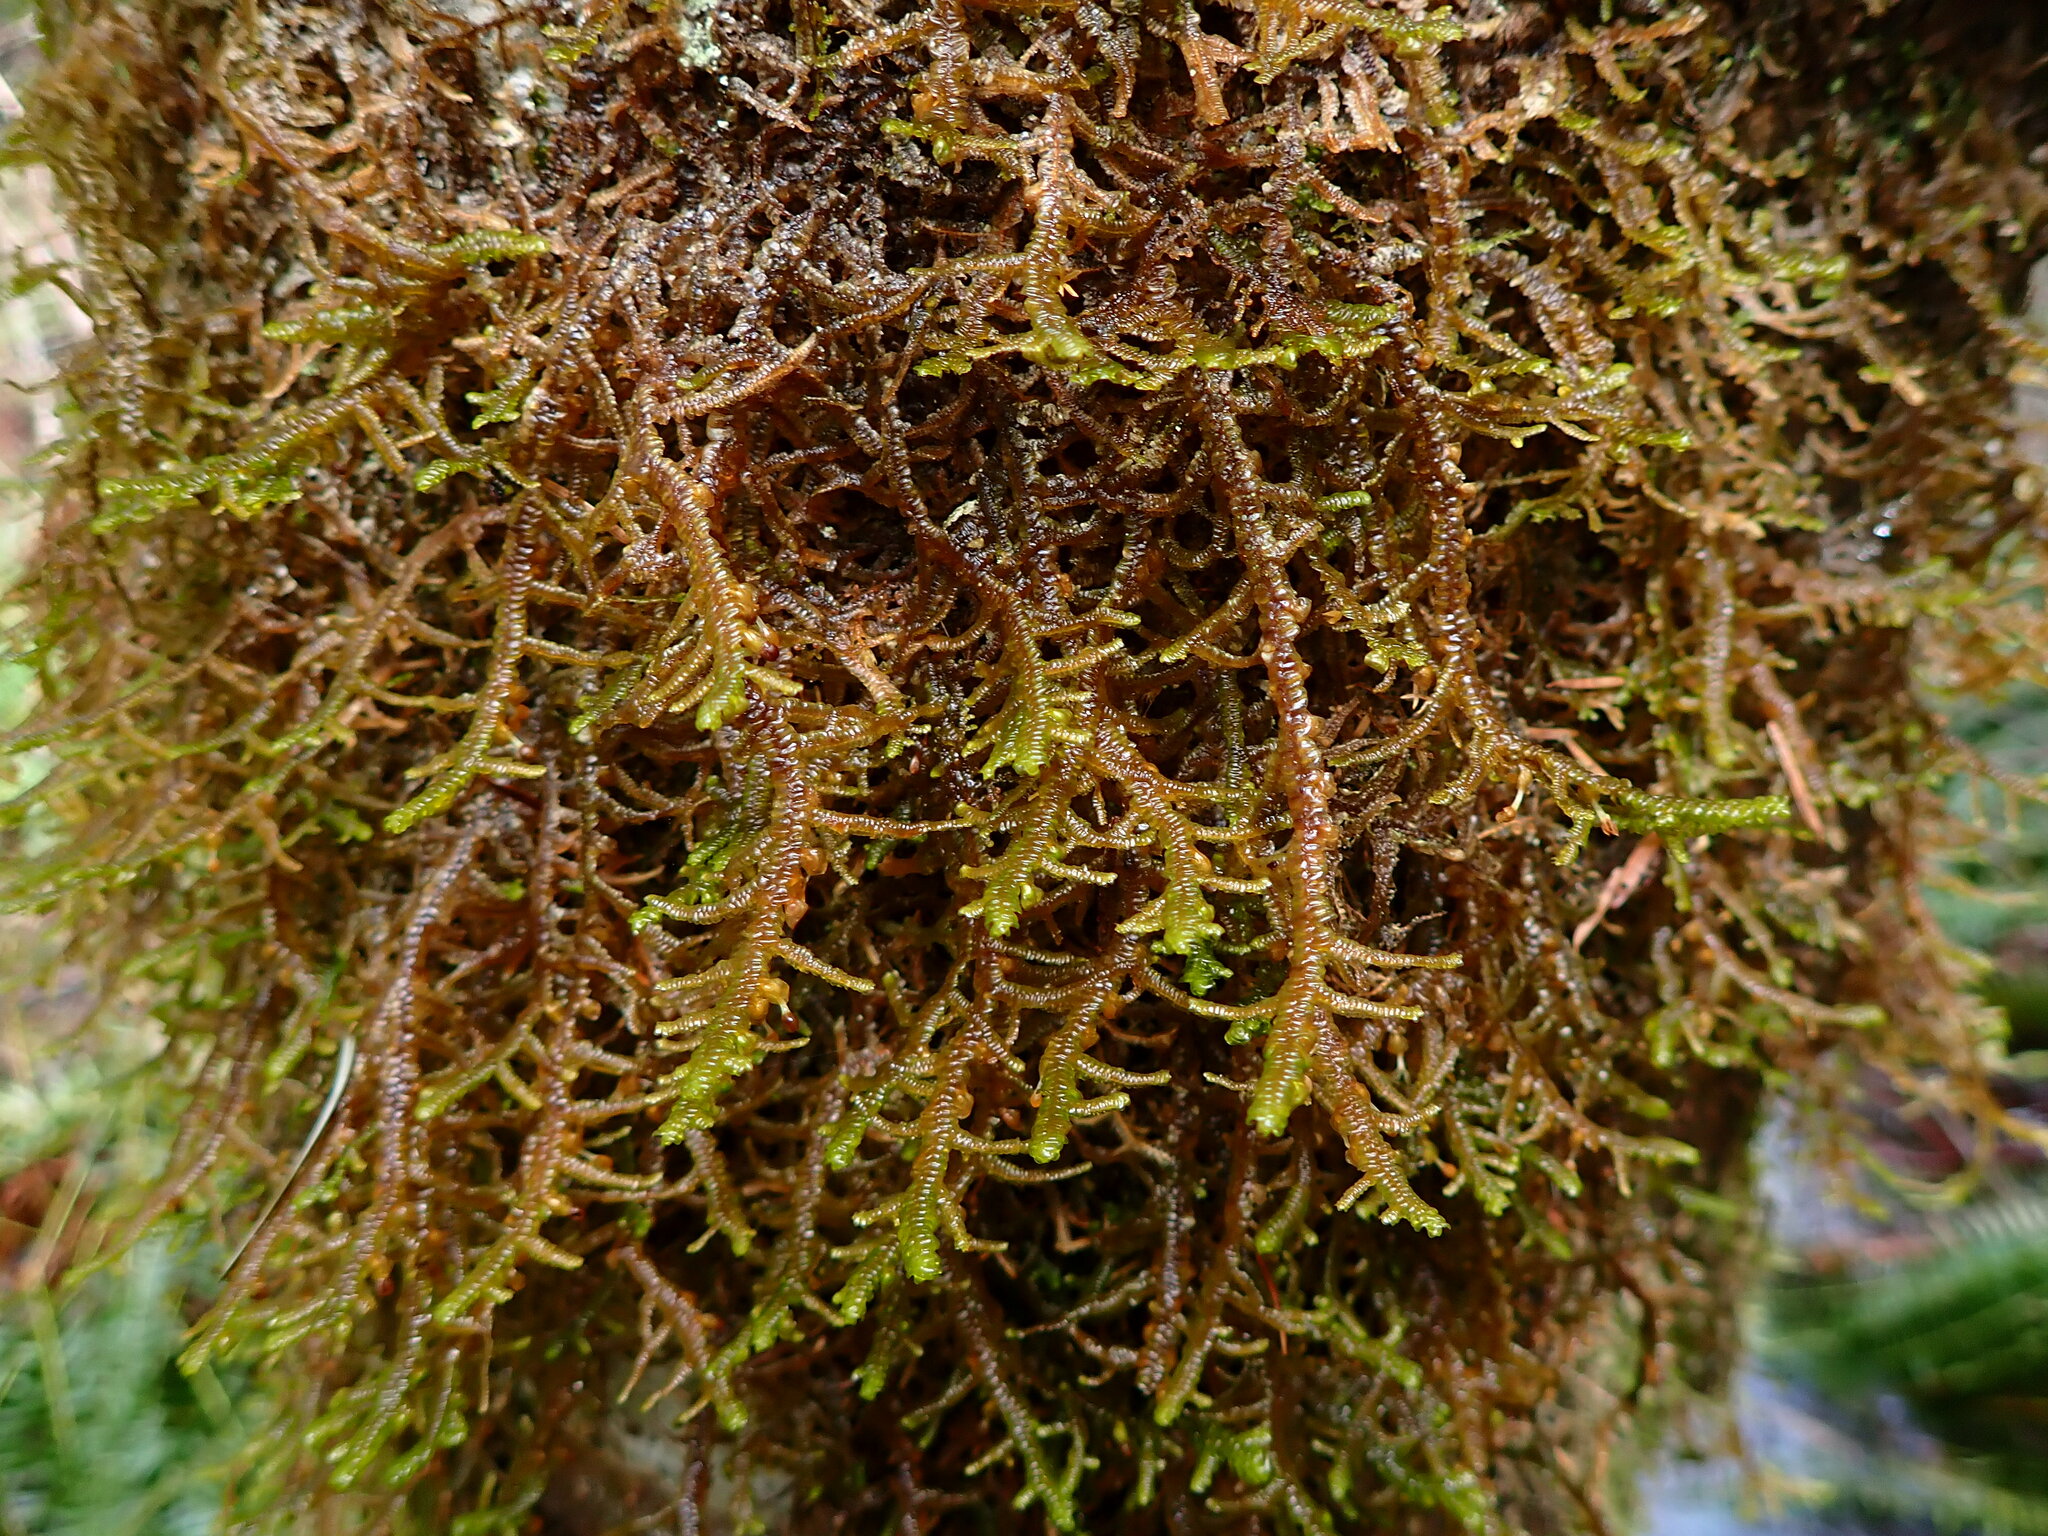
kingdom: Plantae
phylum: Marchantiophyta
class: Jungermanniopsida
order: Porellales
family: Porellaceae
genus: Porella
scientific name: Porella navicularis
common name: Tree ruffle liverwort
